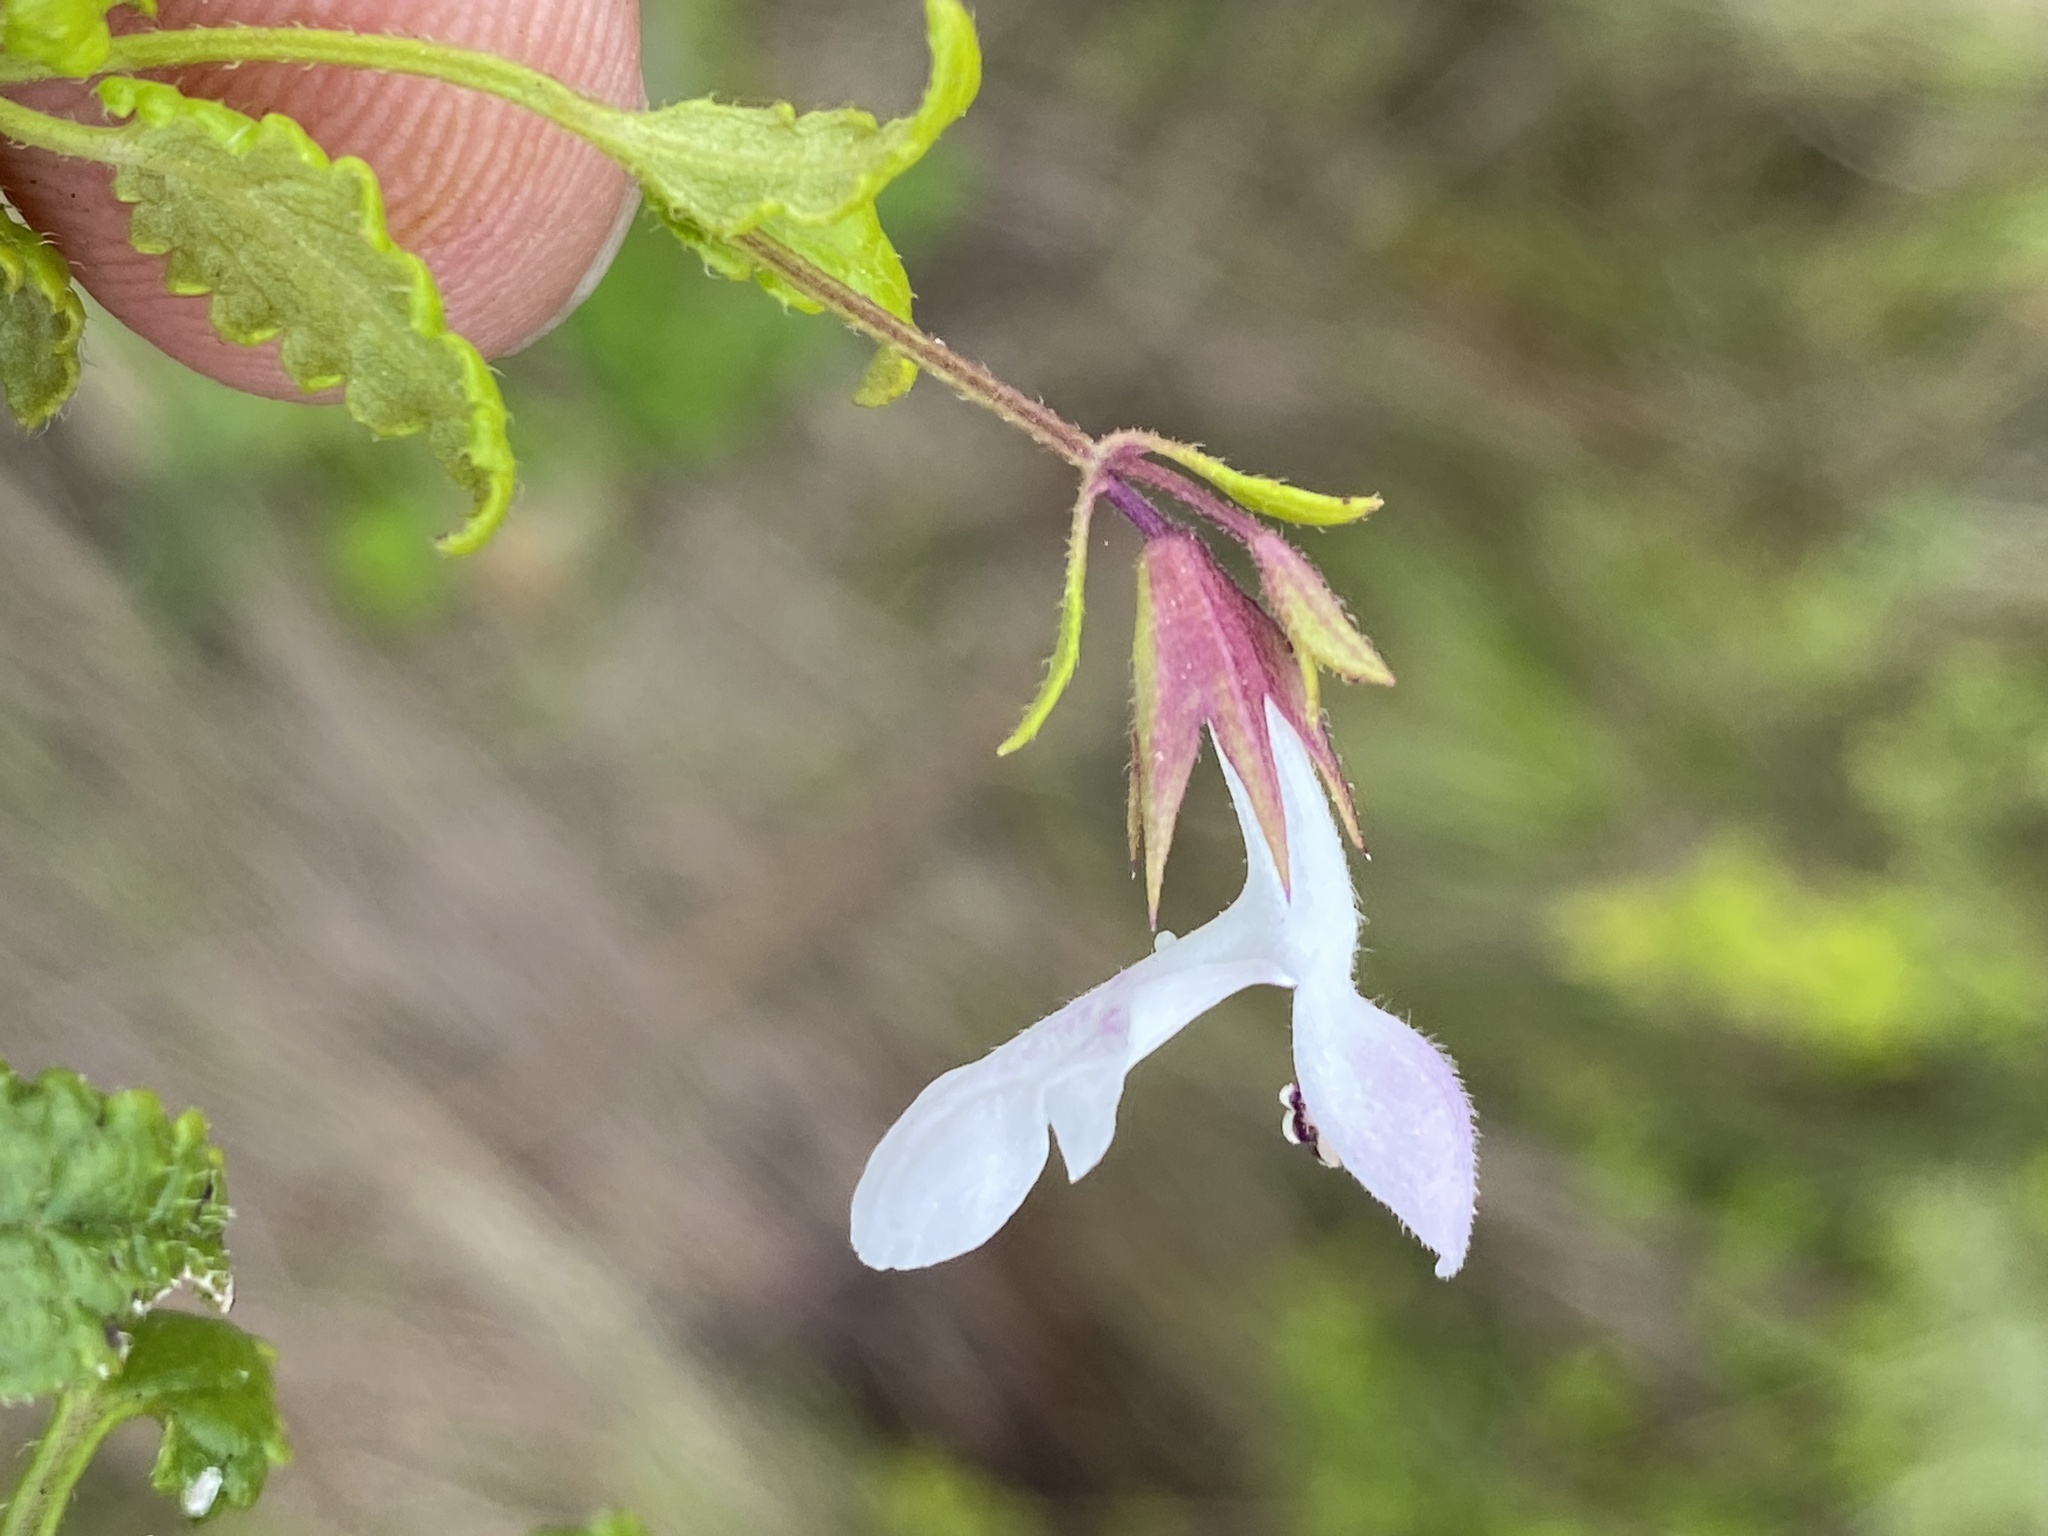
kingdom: Plantae
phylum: Tracheophyta
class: Magnoliopsida
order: Lamiales
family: Lamiaceae
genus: Stachys
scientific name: Stachys aethiopica
